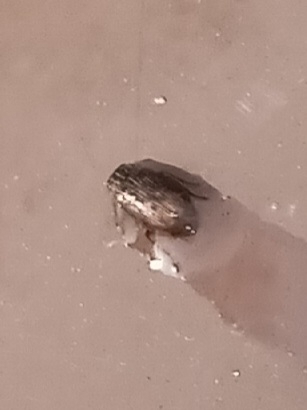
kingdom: Animalia
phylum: Arthropoda
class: Insecta
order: Coleoptera
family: Helophoridae
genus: Helophorus
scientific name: Helophorus
